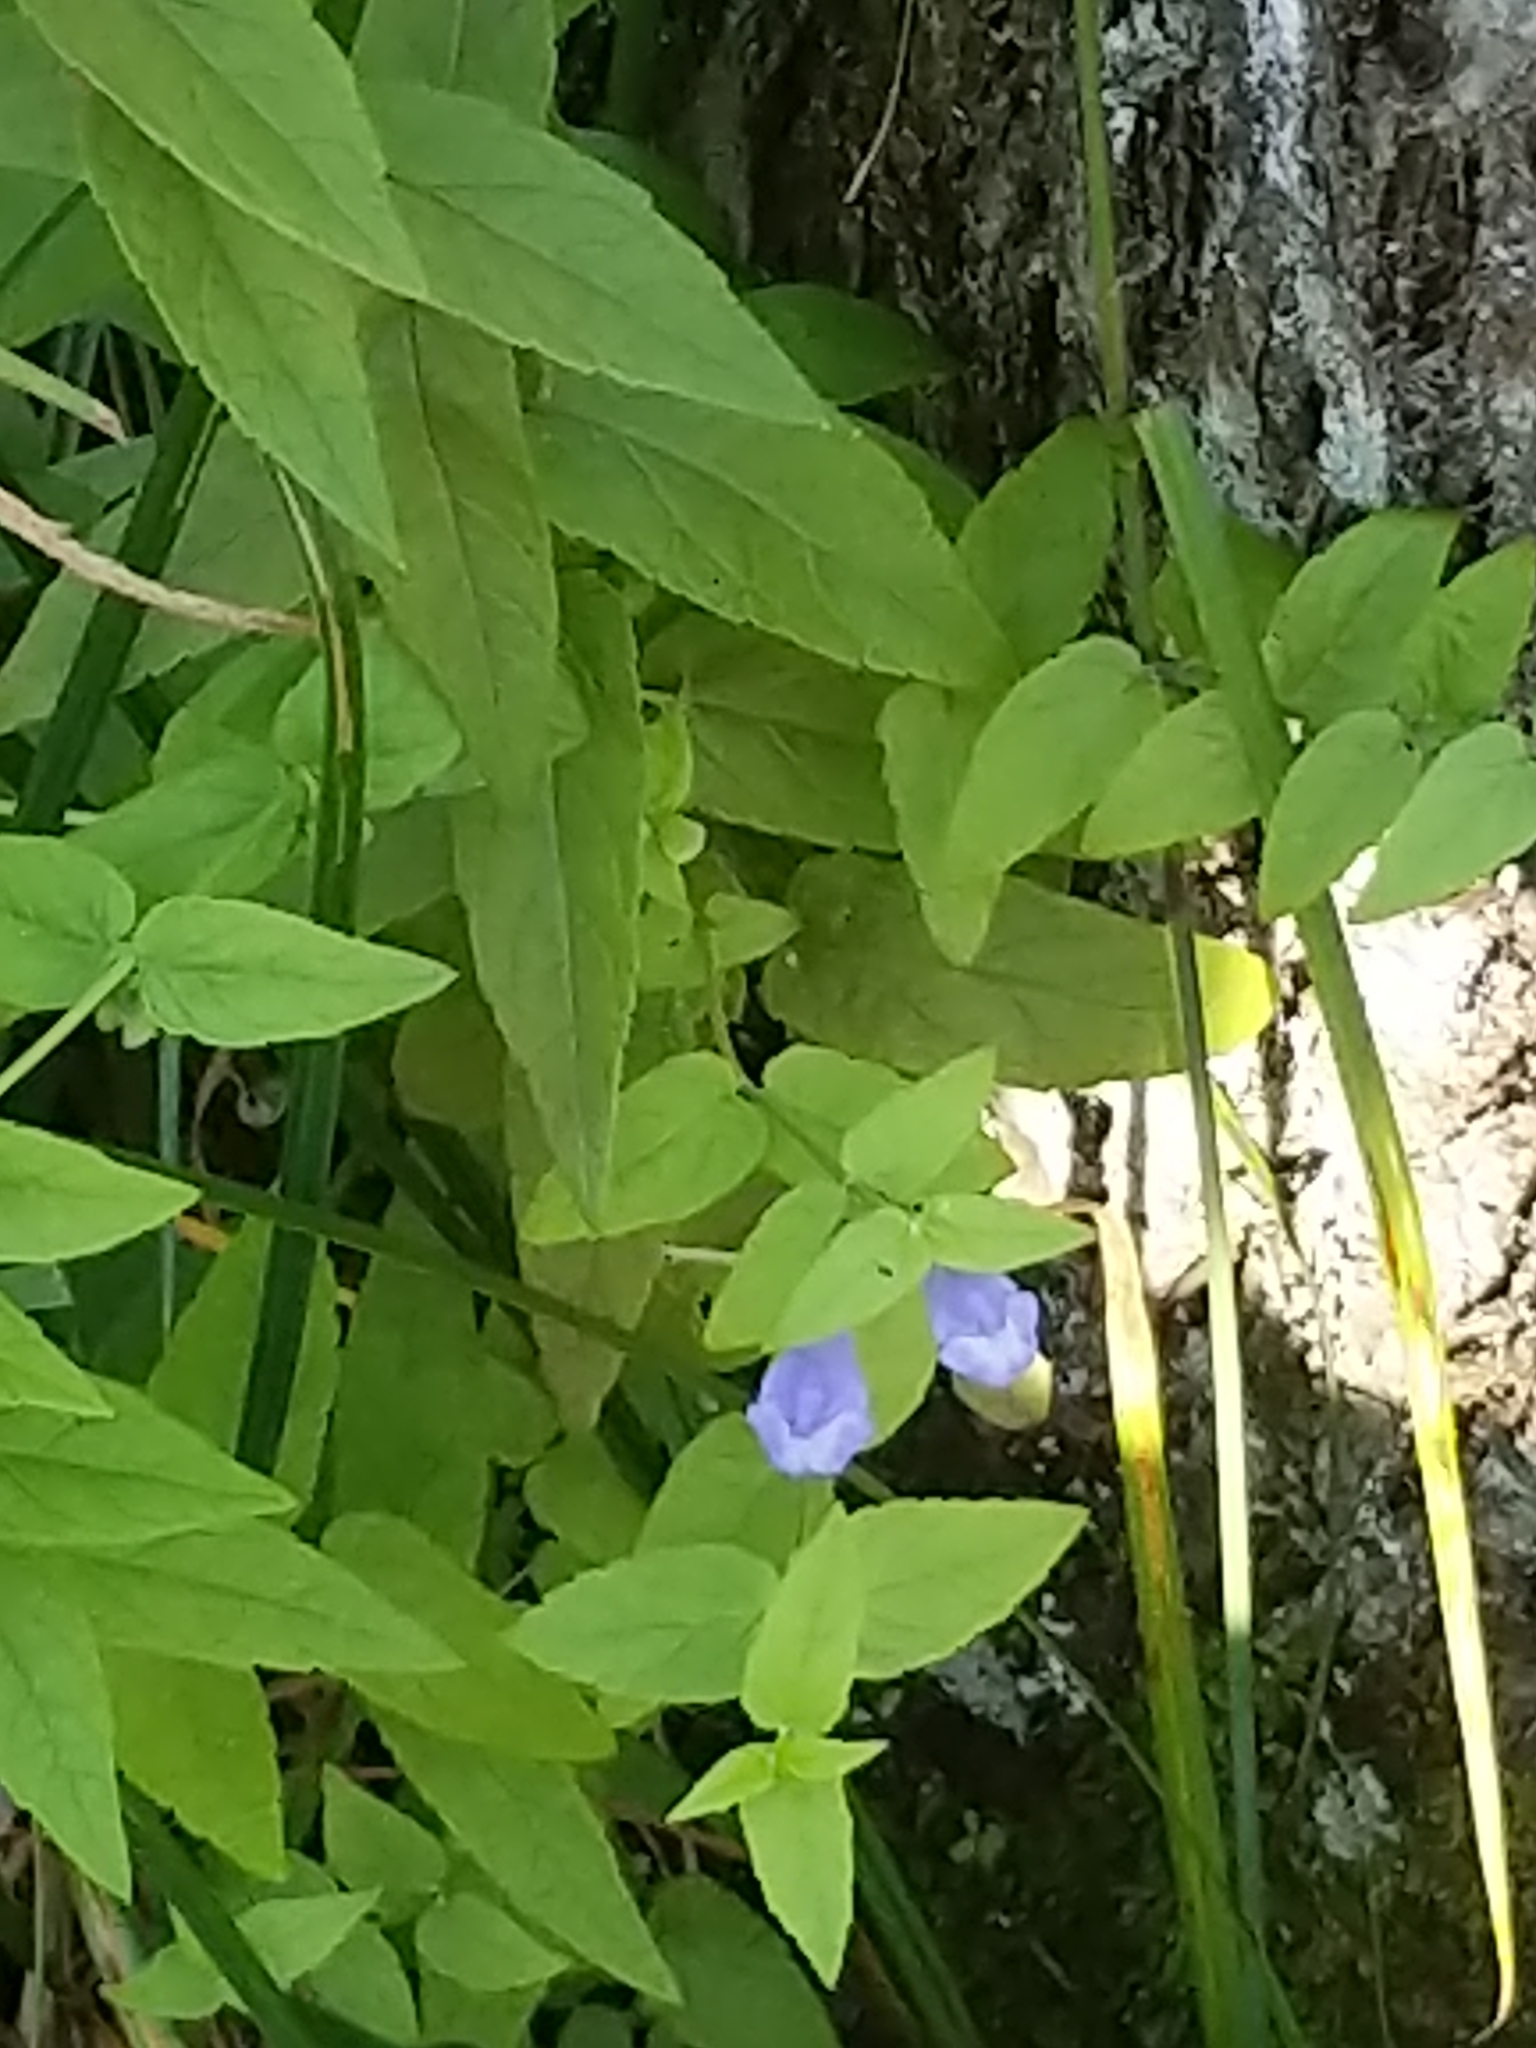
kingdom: Plantae
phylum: Tracheophyta
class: Magnoliopsida
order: Lamiales
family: Lamiaceae
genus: Scutellaria
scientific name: Scutellaria galericulata
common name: Skullcap
